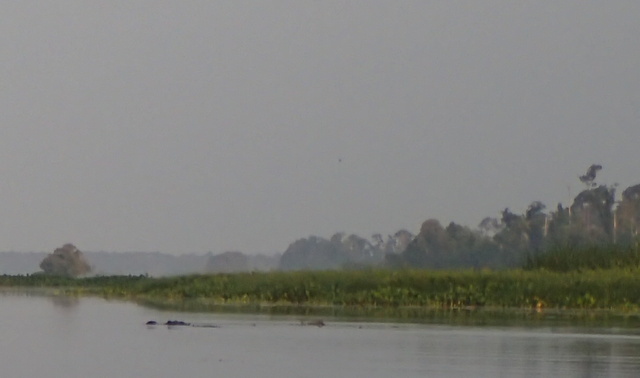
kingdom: Animalia
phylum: Chordata
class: Crocodylia
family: Alligatoridae
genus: Alligator
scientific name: Alligator mississippiensis
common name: American alligator
